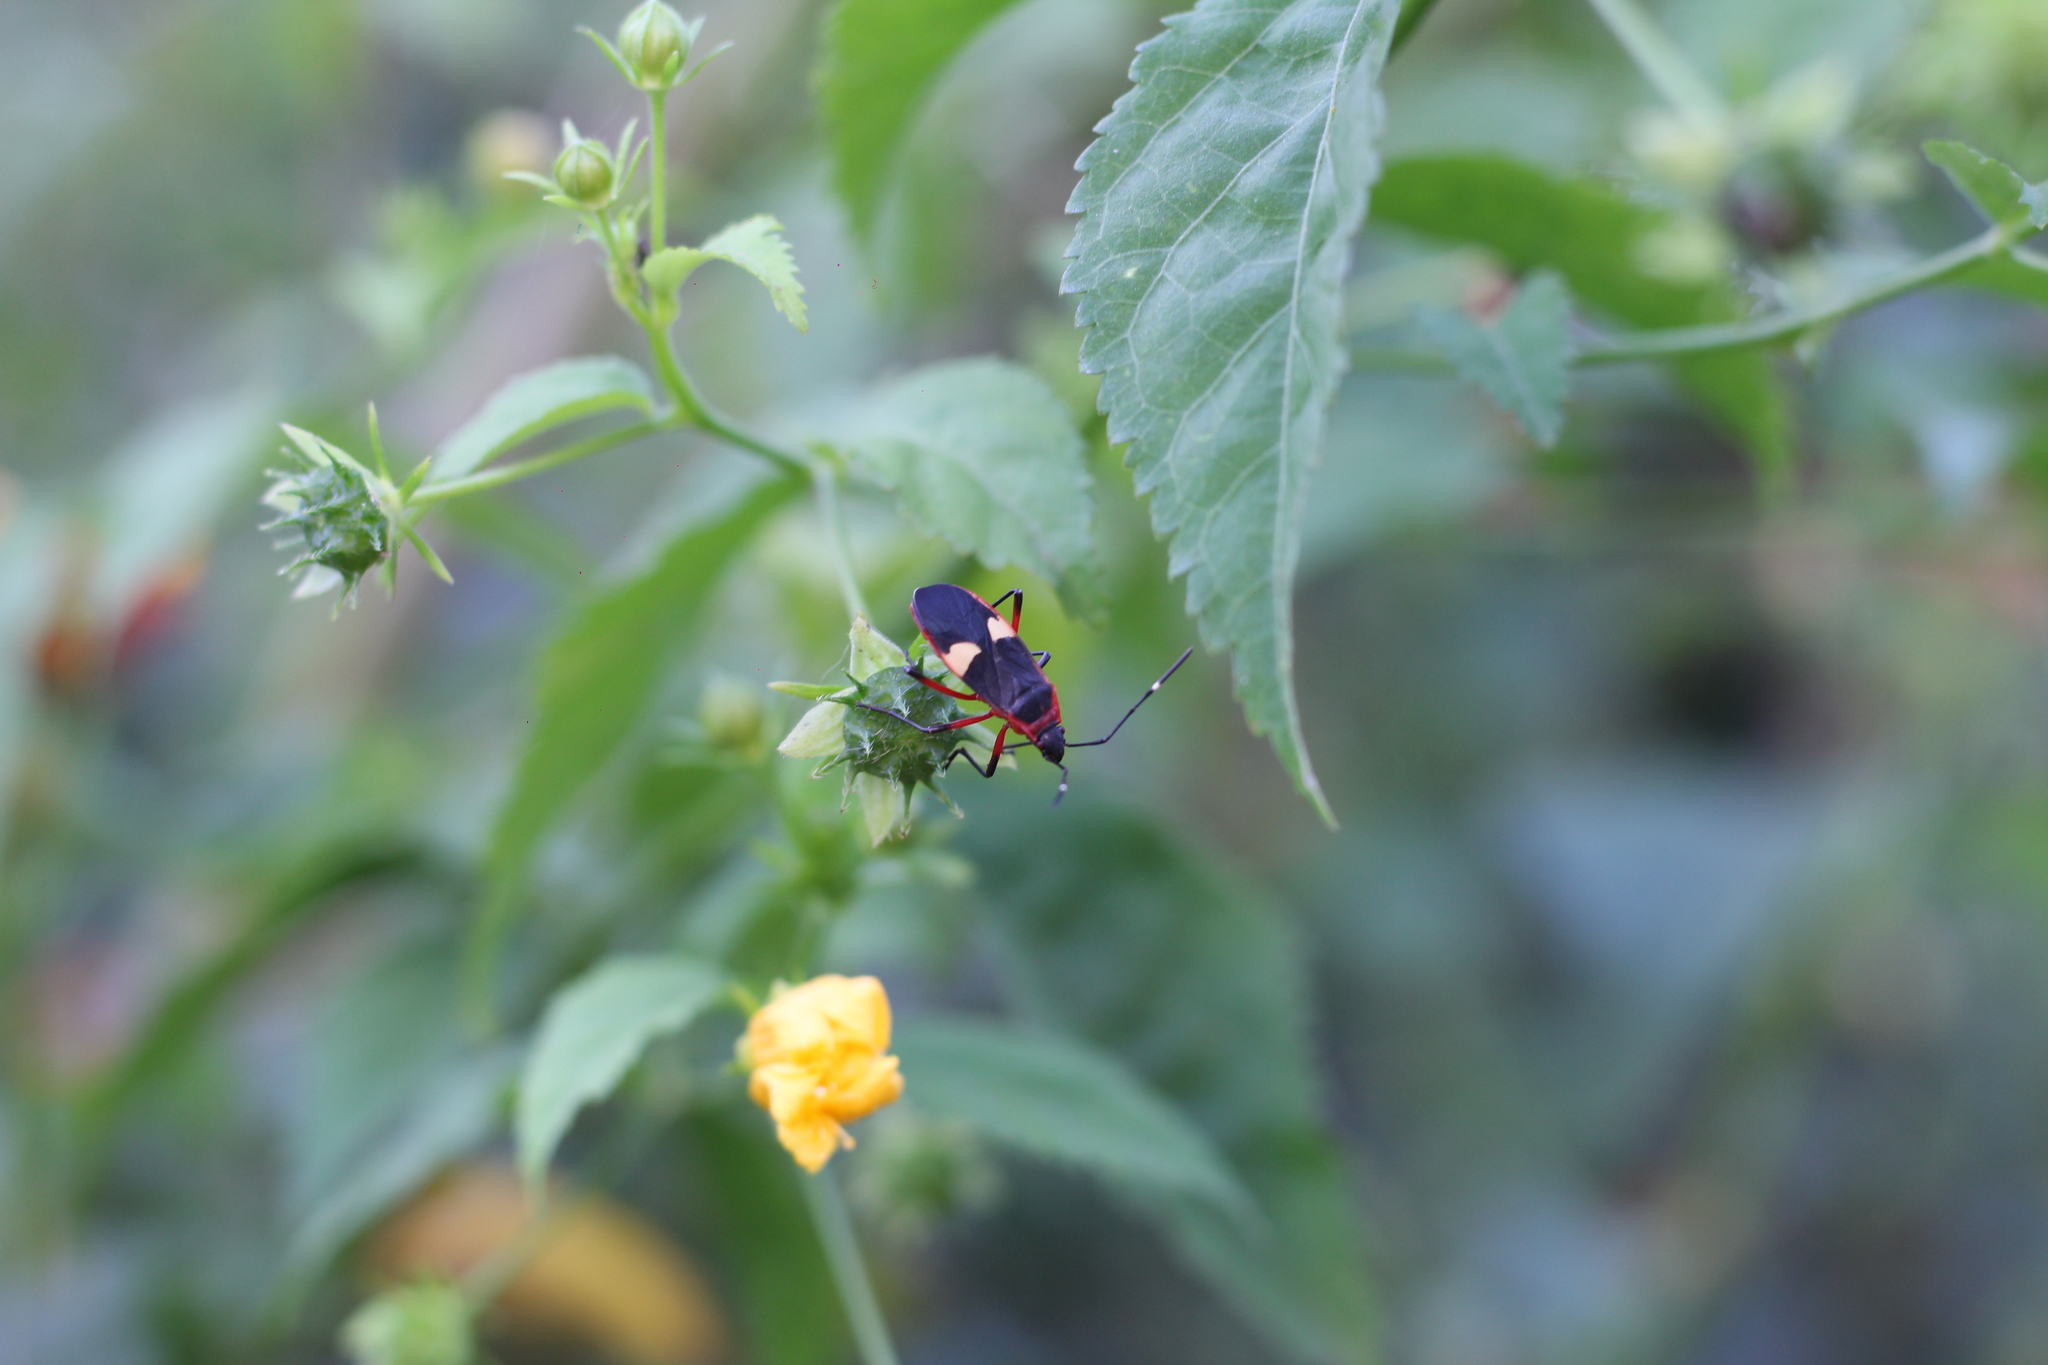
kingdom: Animalia
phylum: Arthropoda
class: Insecta
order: Hemiptera
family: Pyrrhocoridae
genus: Dysdercus
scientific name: Dysdercus albofasciatus
